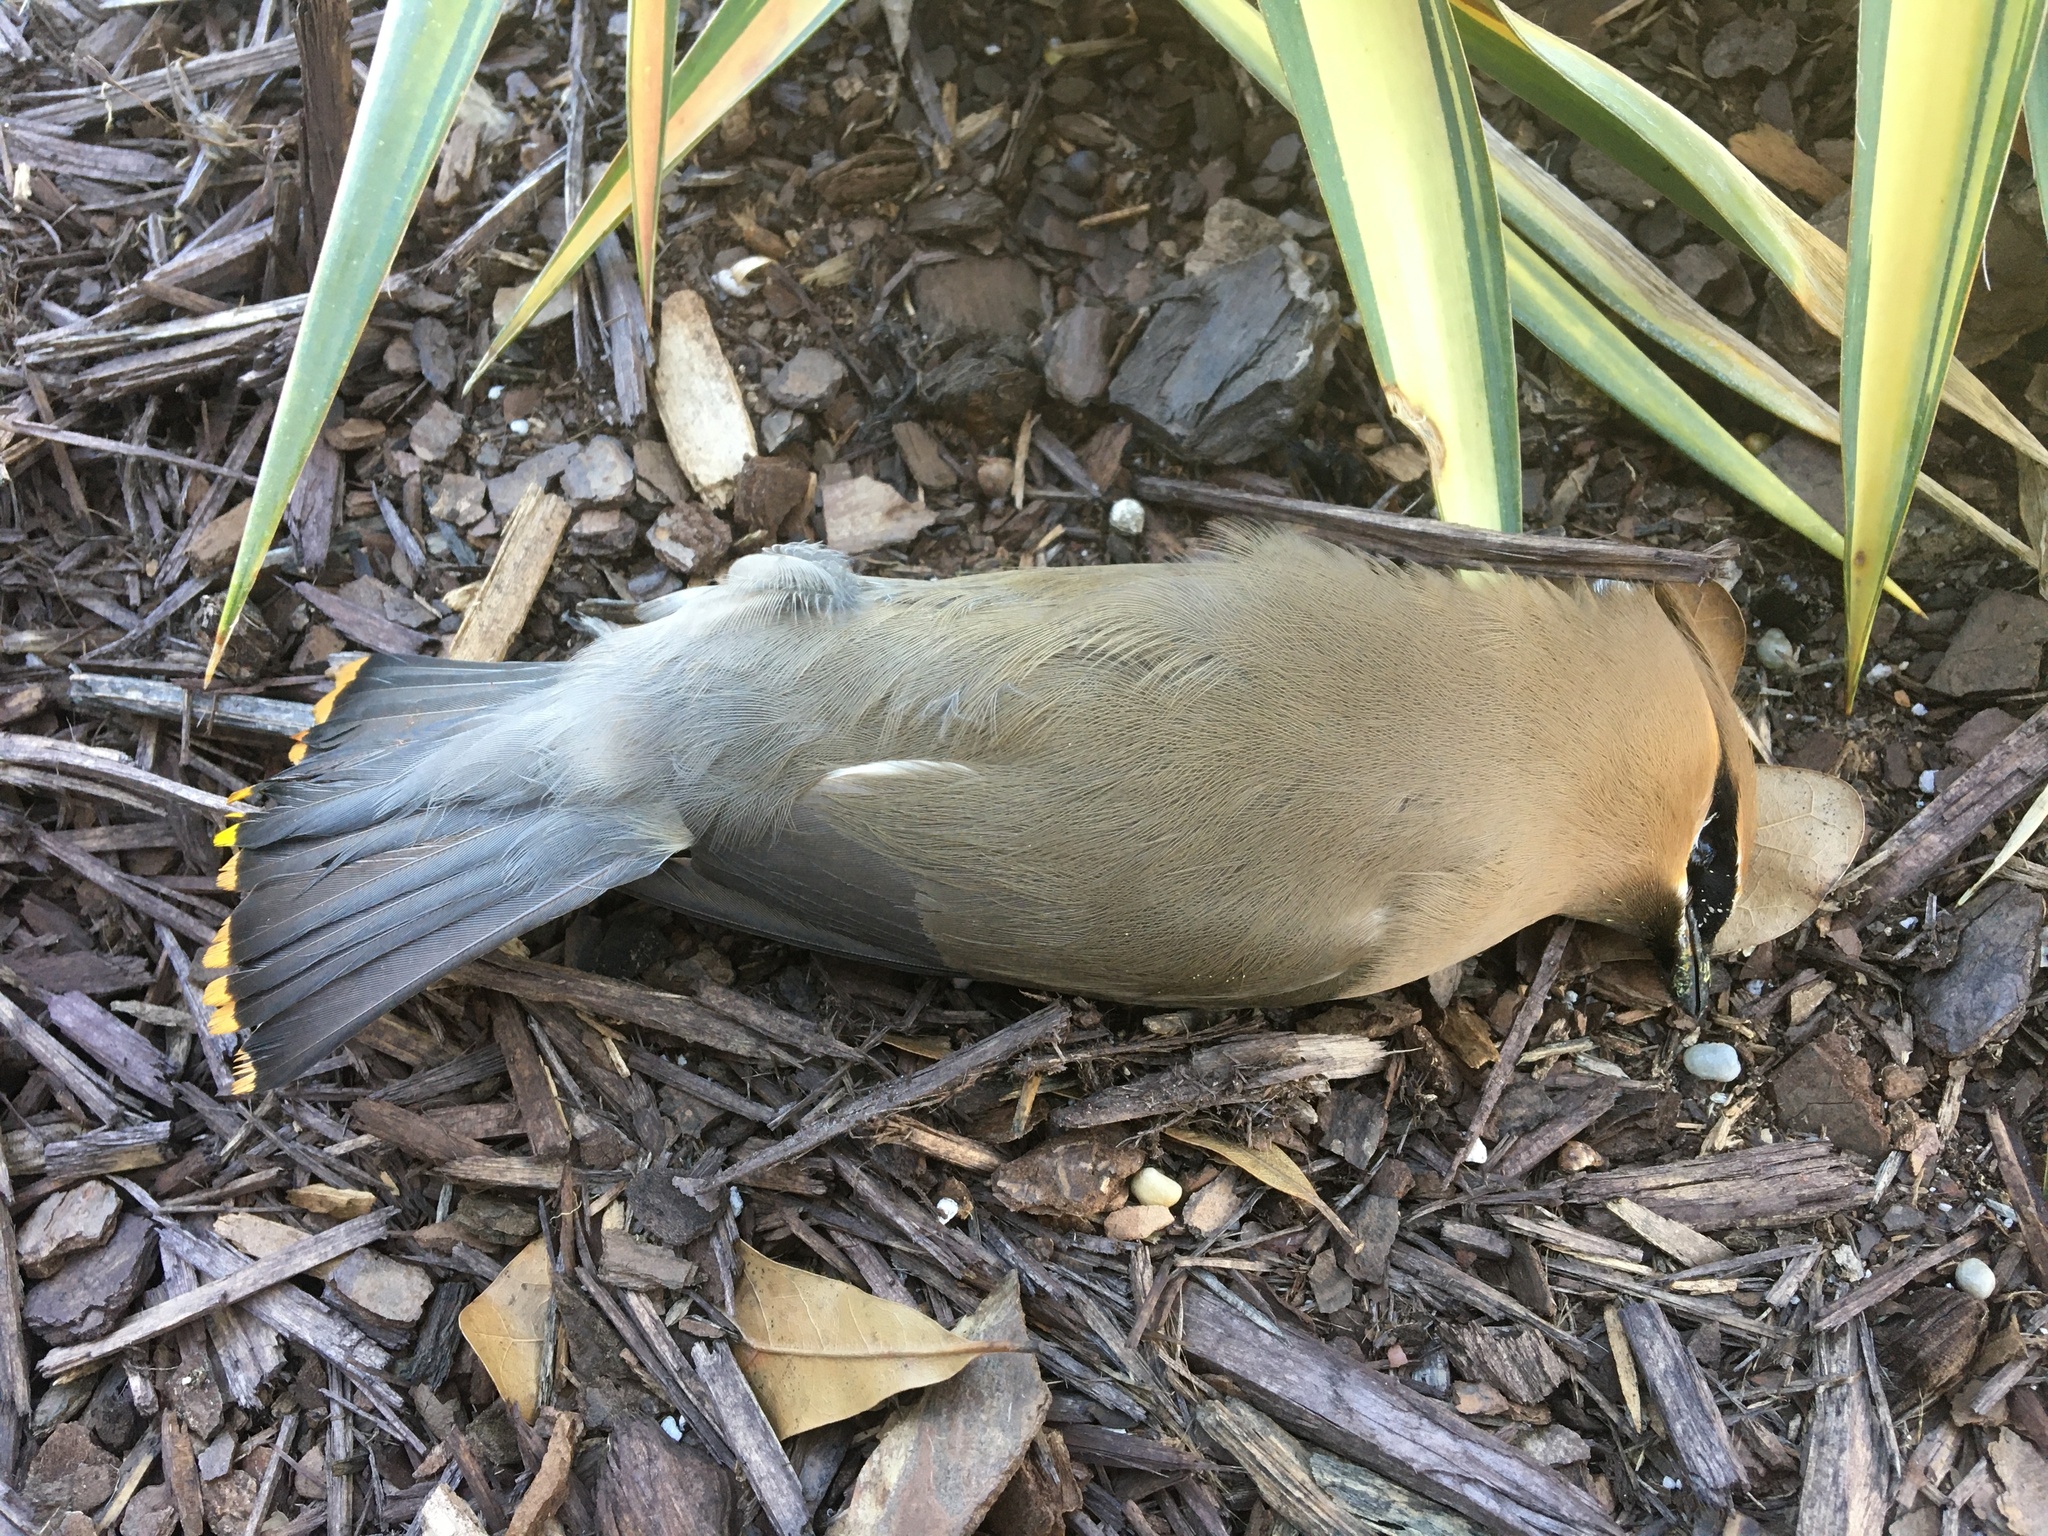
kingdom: Animalia
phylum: Chordata
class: Aves
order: Passeriformes
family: Bombycillidae
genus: Bombycilla
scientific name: Bombycilla cedrorum
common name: Cedar waxwing
